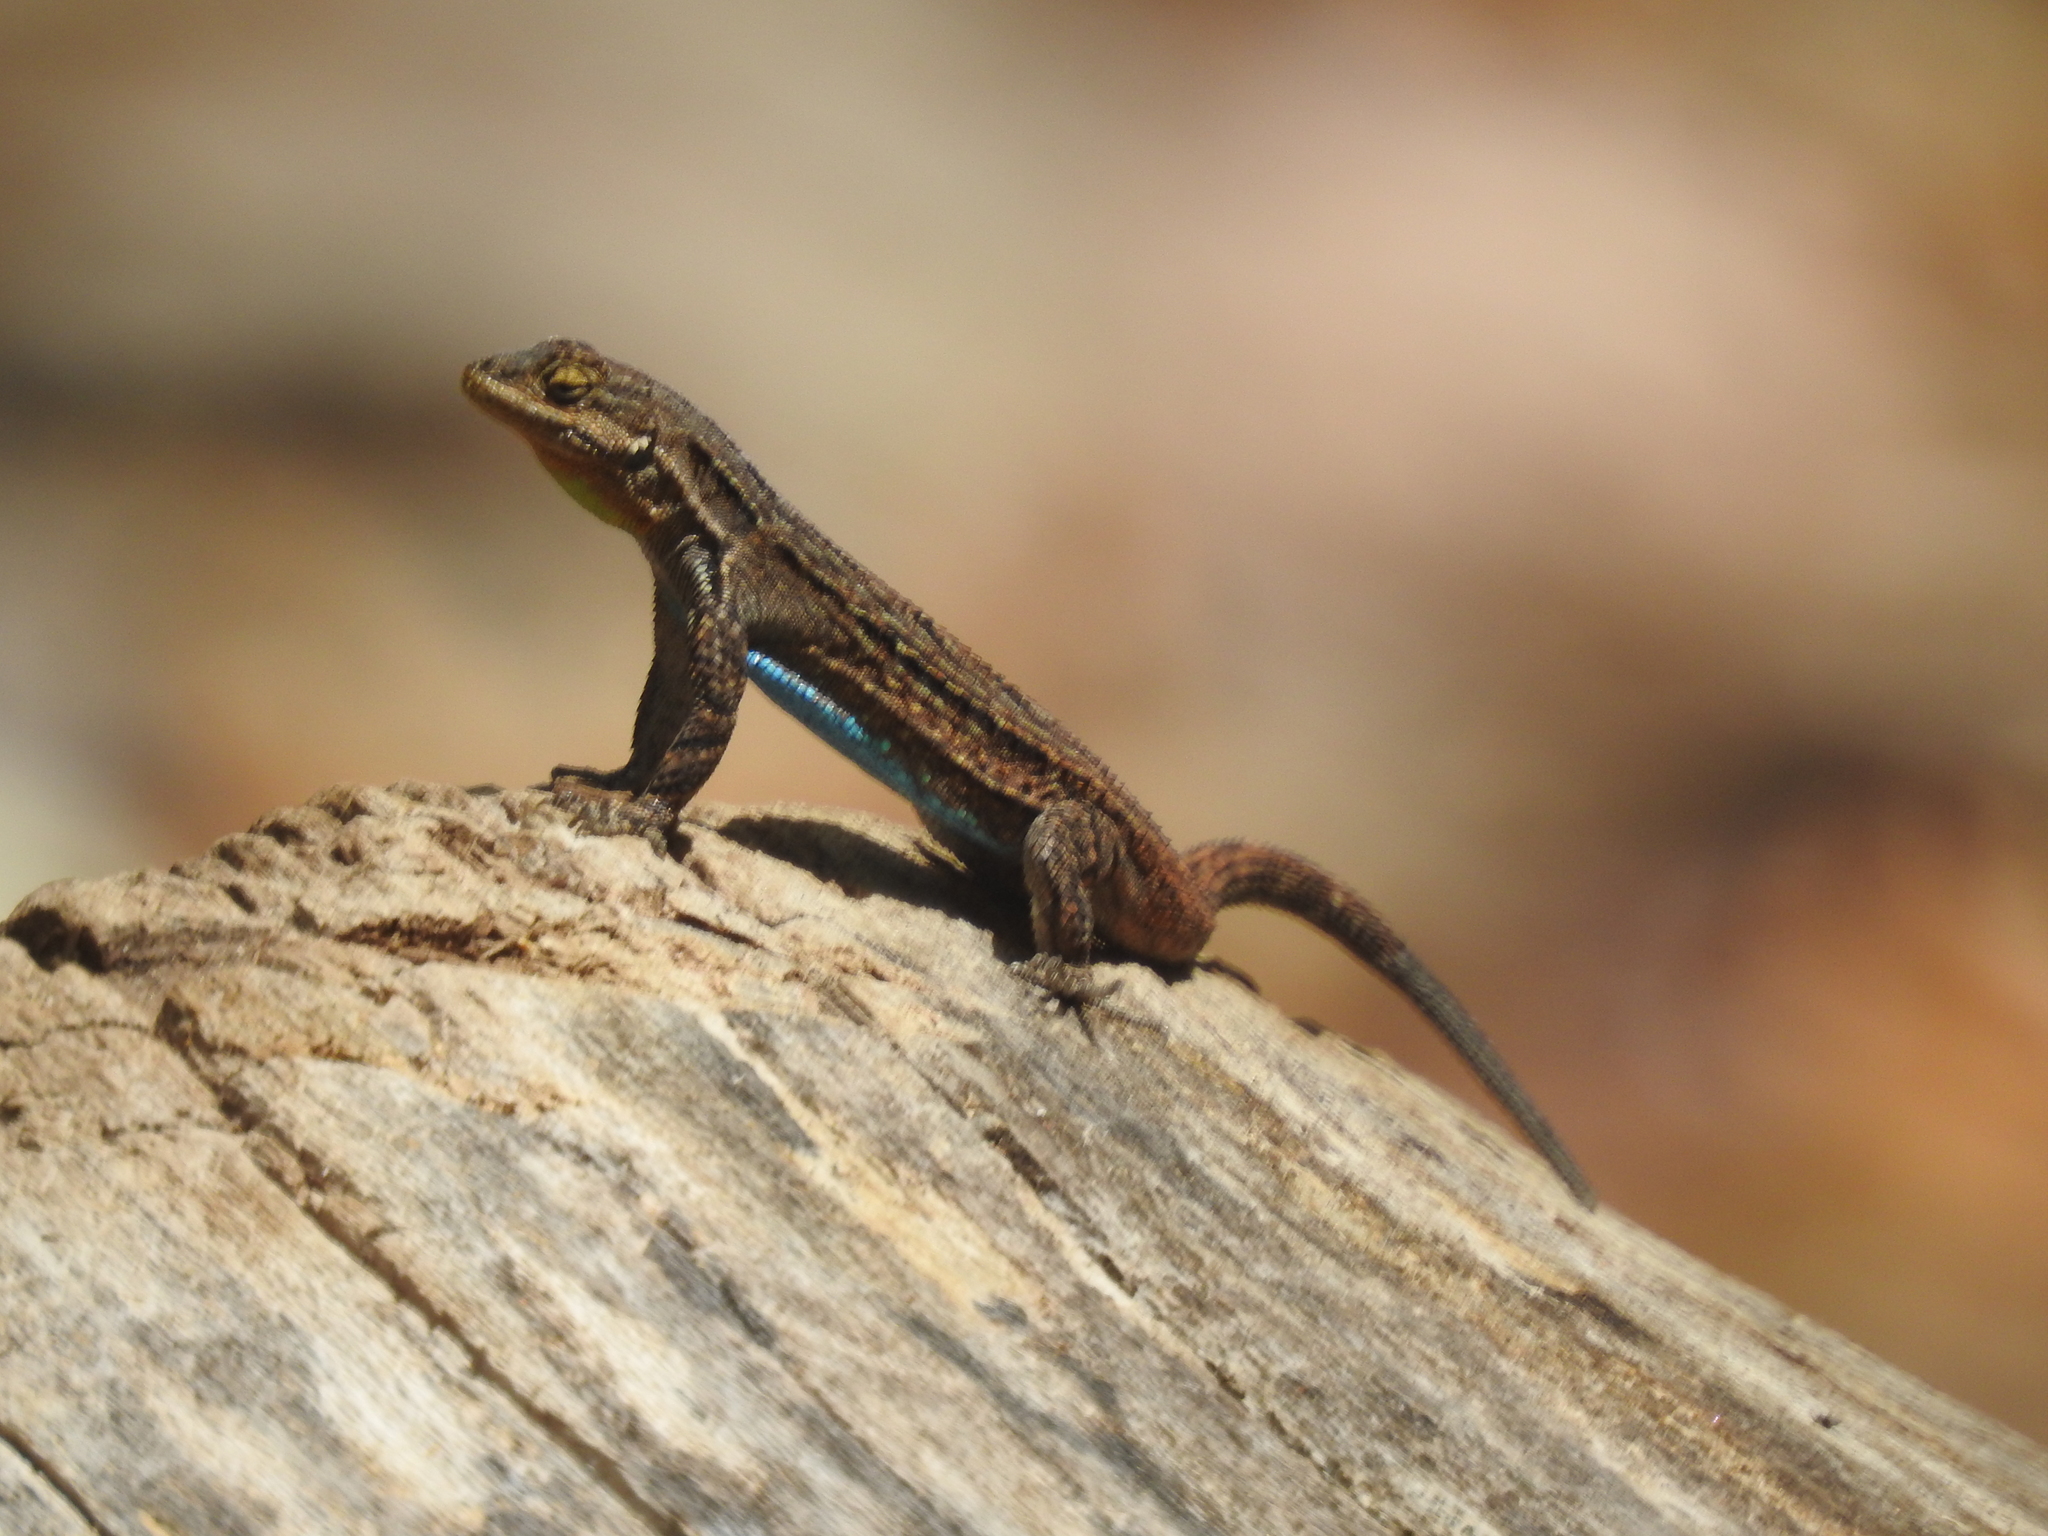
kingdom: Animalia
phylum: Chordata
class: Squamata
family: Phrynosomatidae
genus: Urosaurus
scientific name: Urosaurus ornatus
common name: Ornate tree lizard
